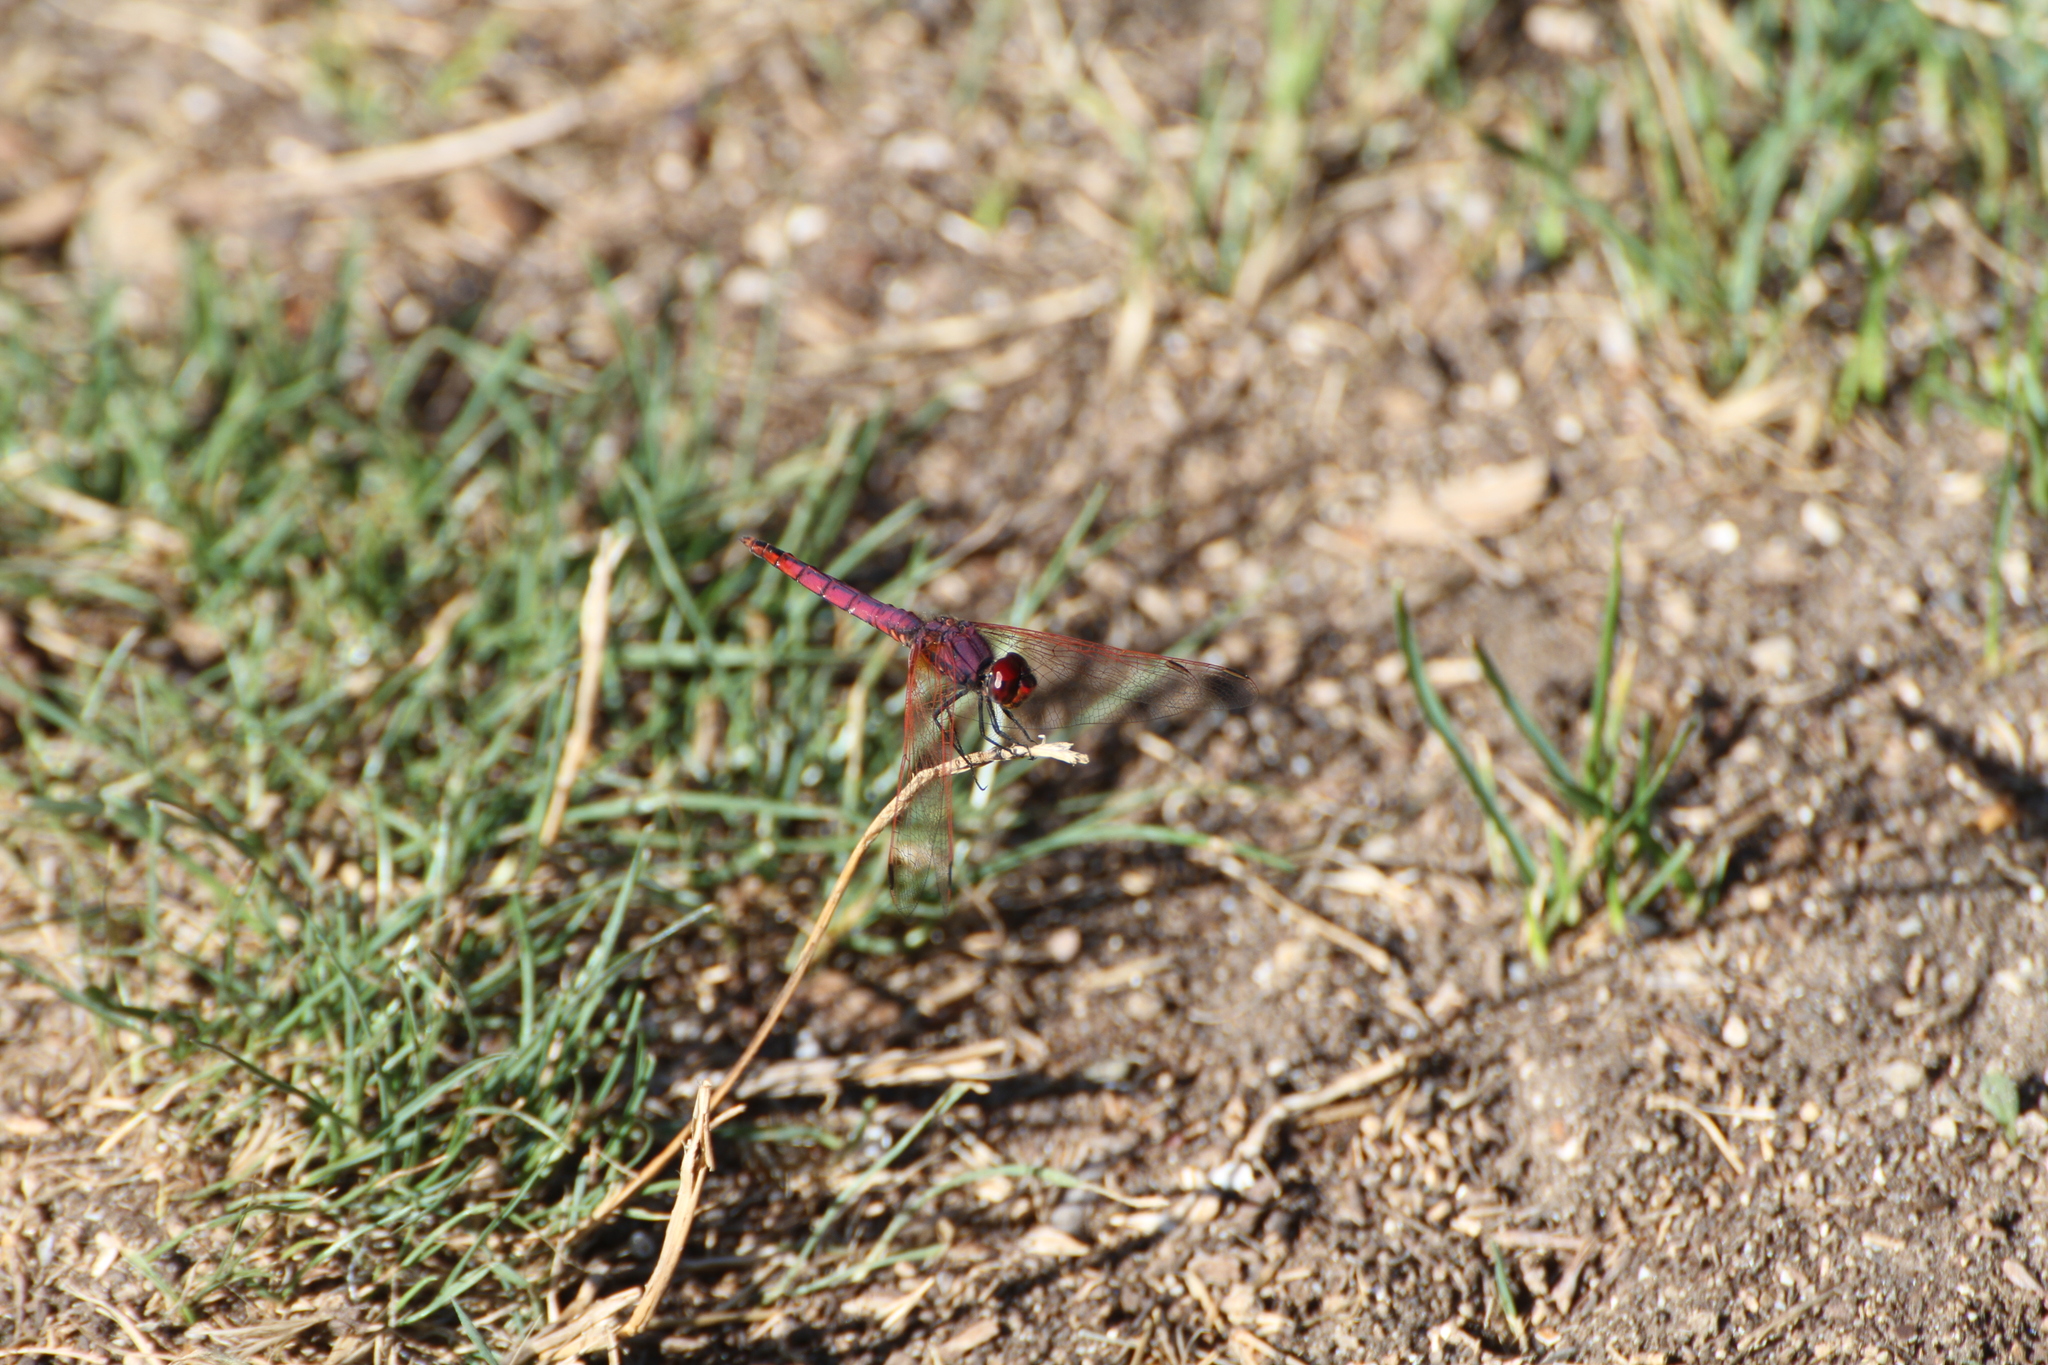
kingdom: Animalia
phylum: Arthropoda
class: Insecta
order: Odonata
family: Libellulidae
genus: Trithemis
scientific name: Trithemis annulata
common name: Violet dropwing
